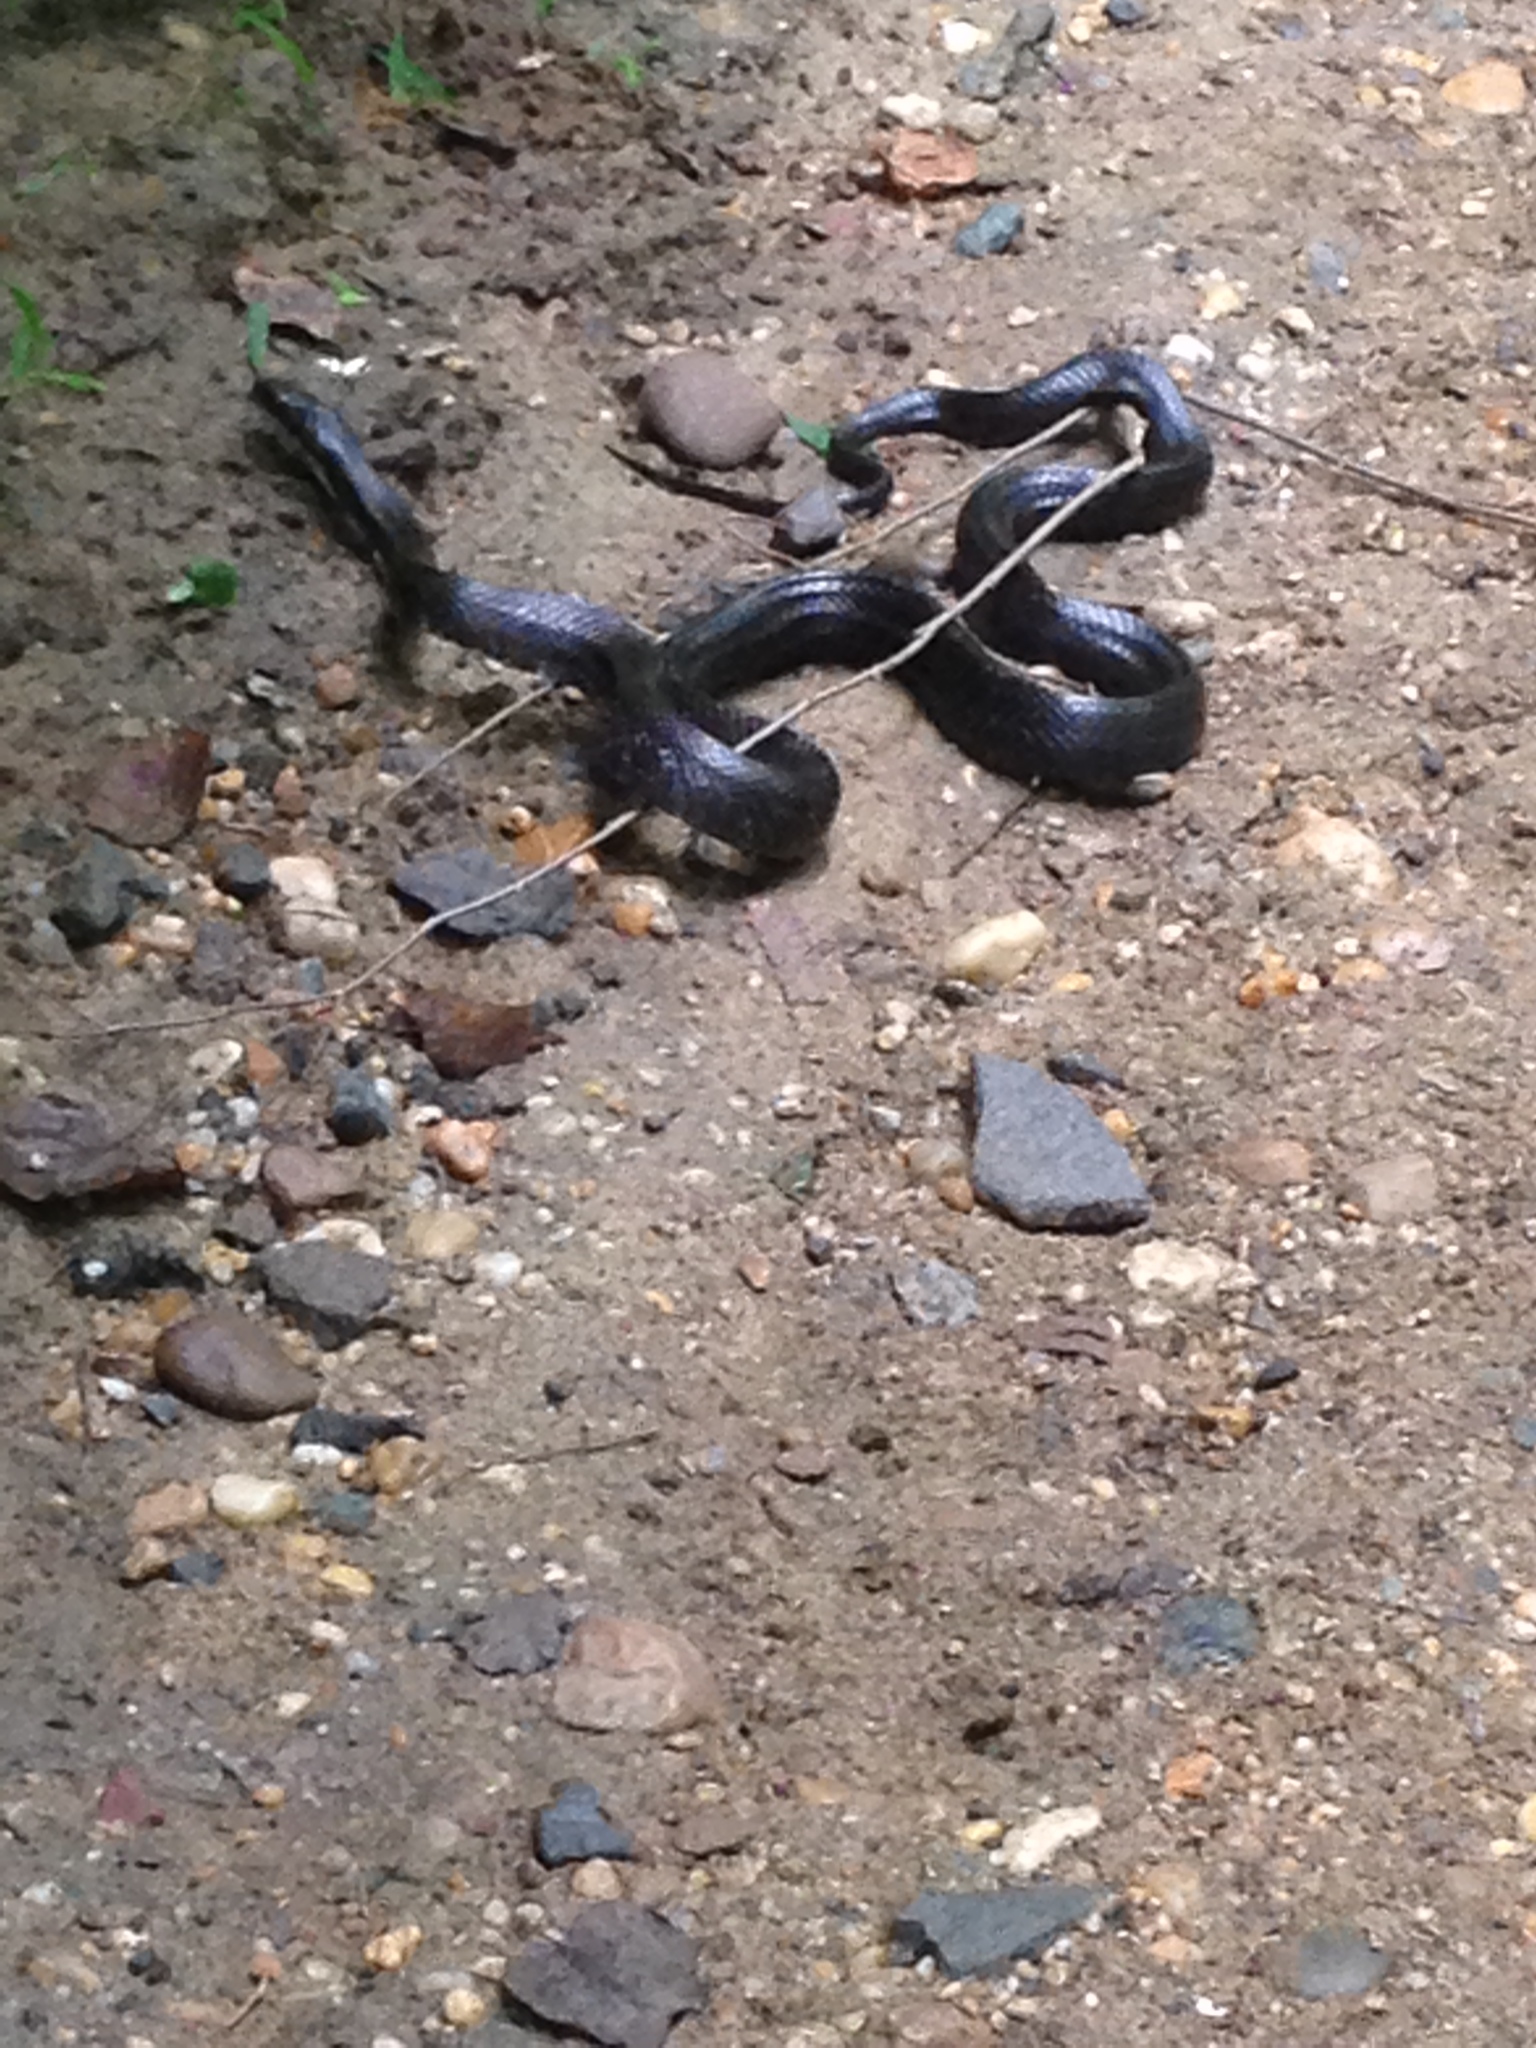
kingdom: Animalia
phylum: Chordata
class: Squamata
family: Colubridae
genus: Pantherophis
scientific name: Pantherophis alleghaniensis
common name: Eastern rat snake
